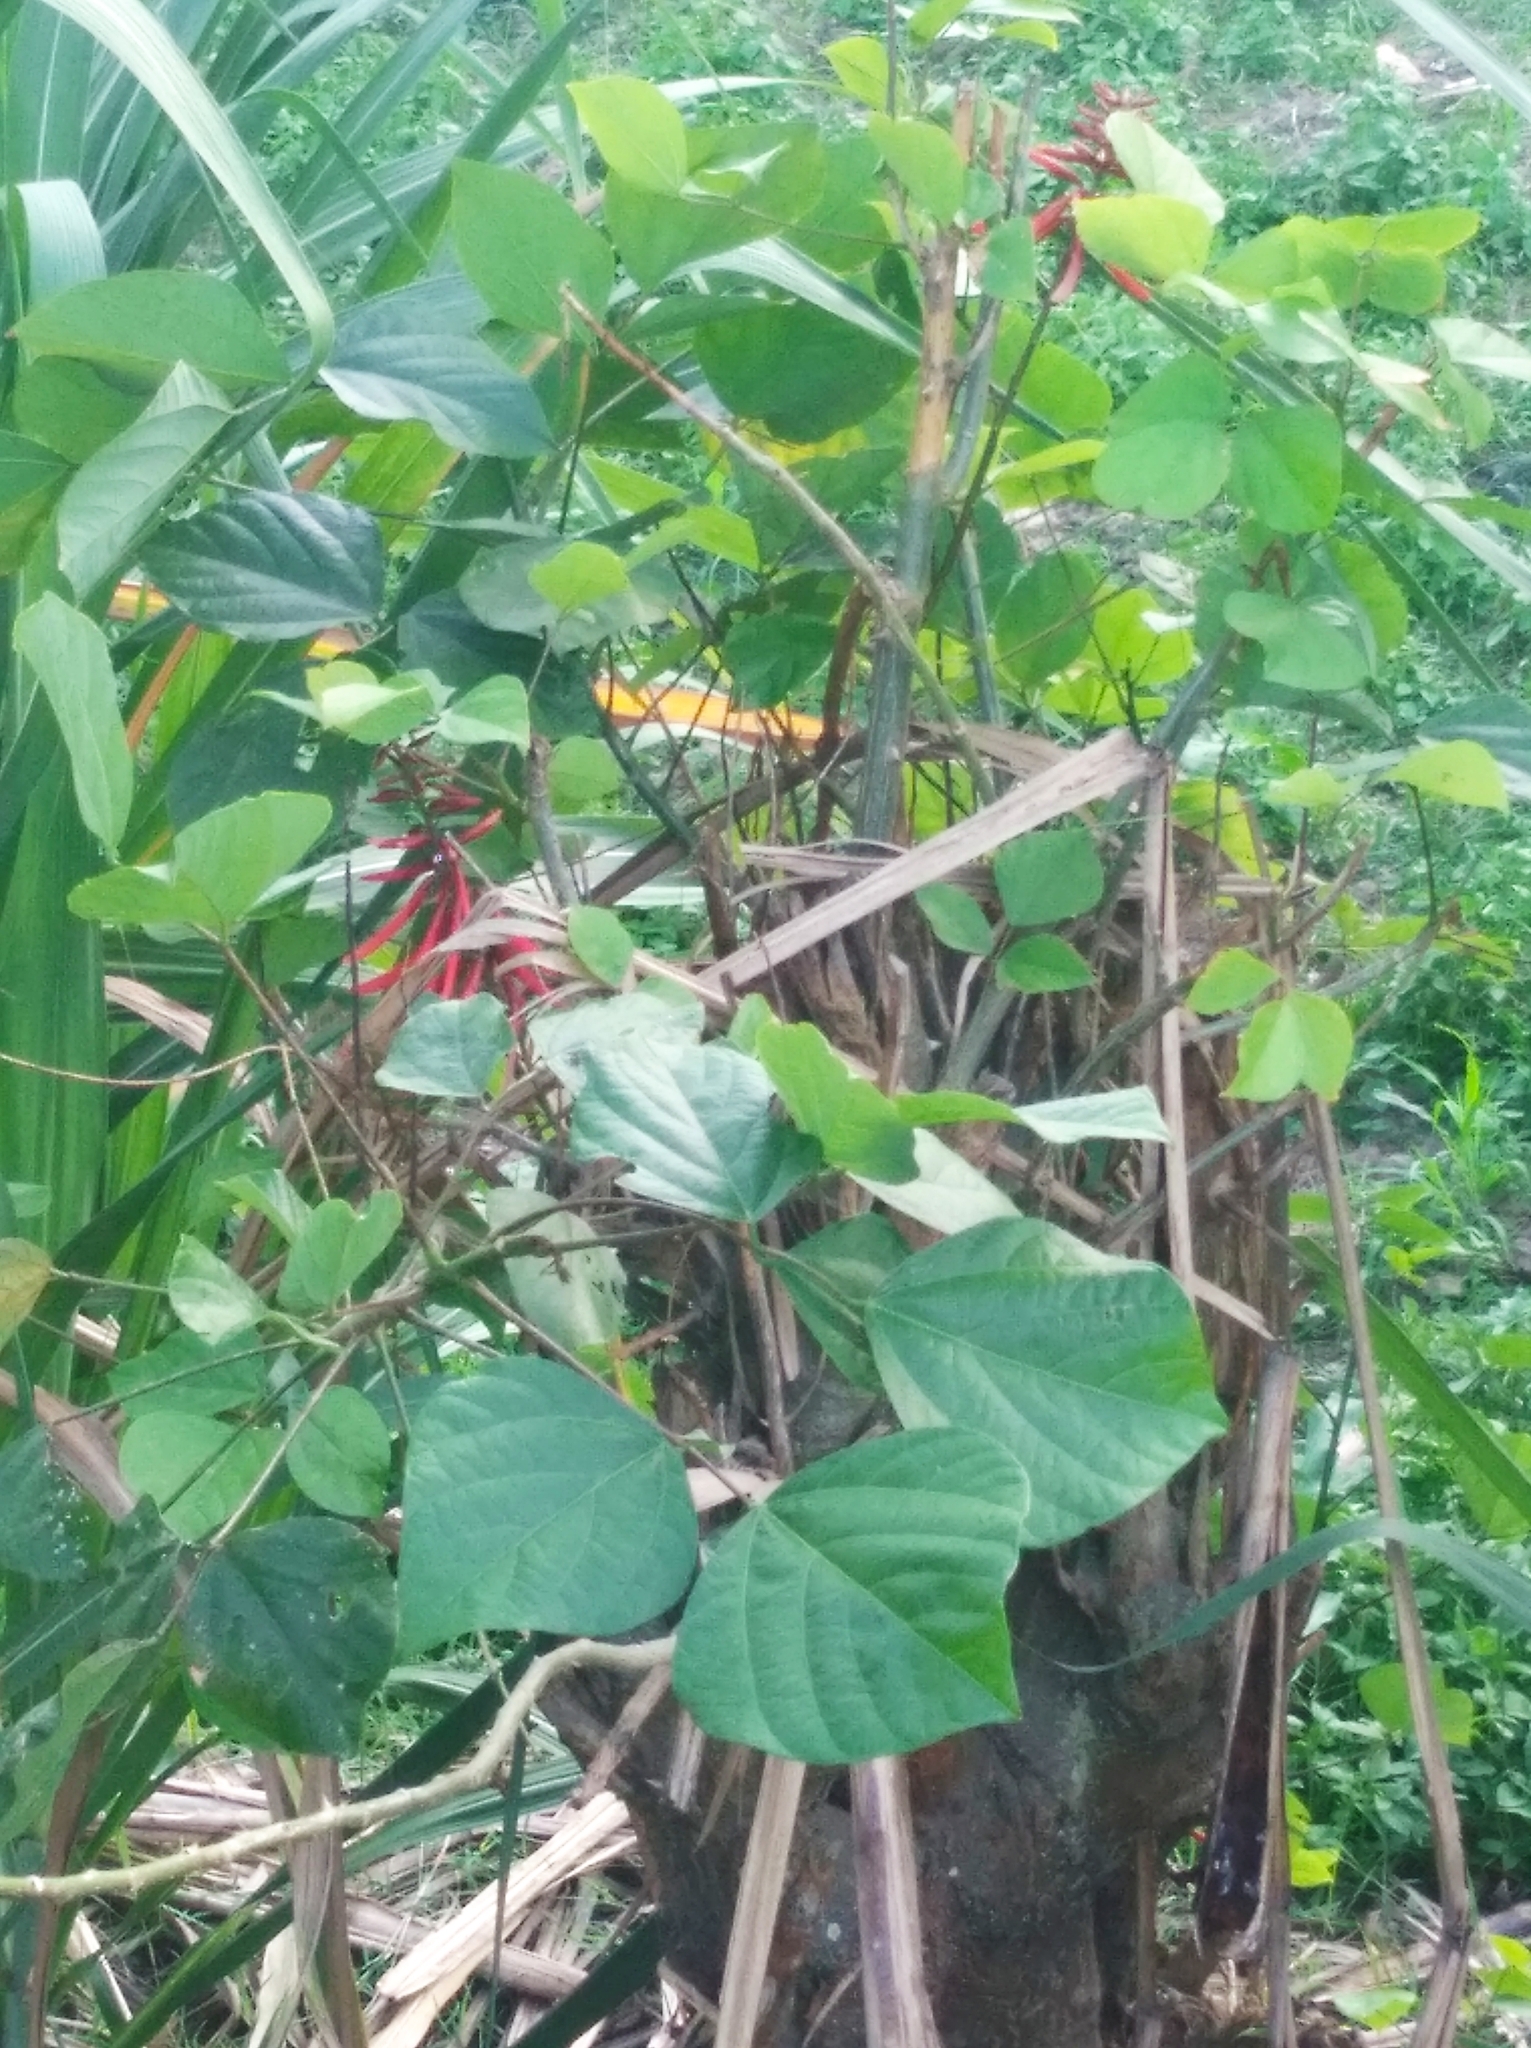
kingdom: Plantae
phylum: Tracheophyta
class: Magnoliopsida
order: Fabales
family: Fabaceae
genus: Erythrina
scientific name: Erythrina americana
